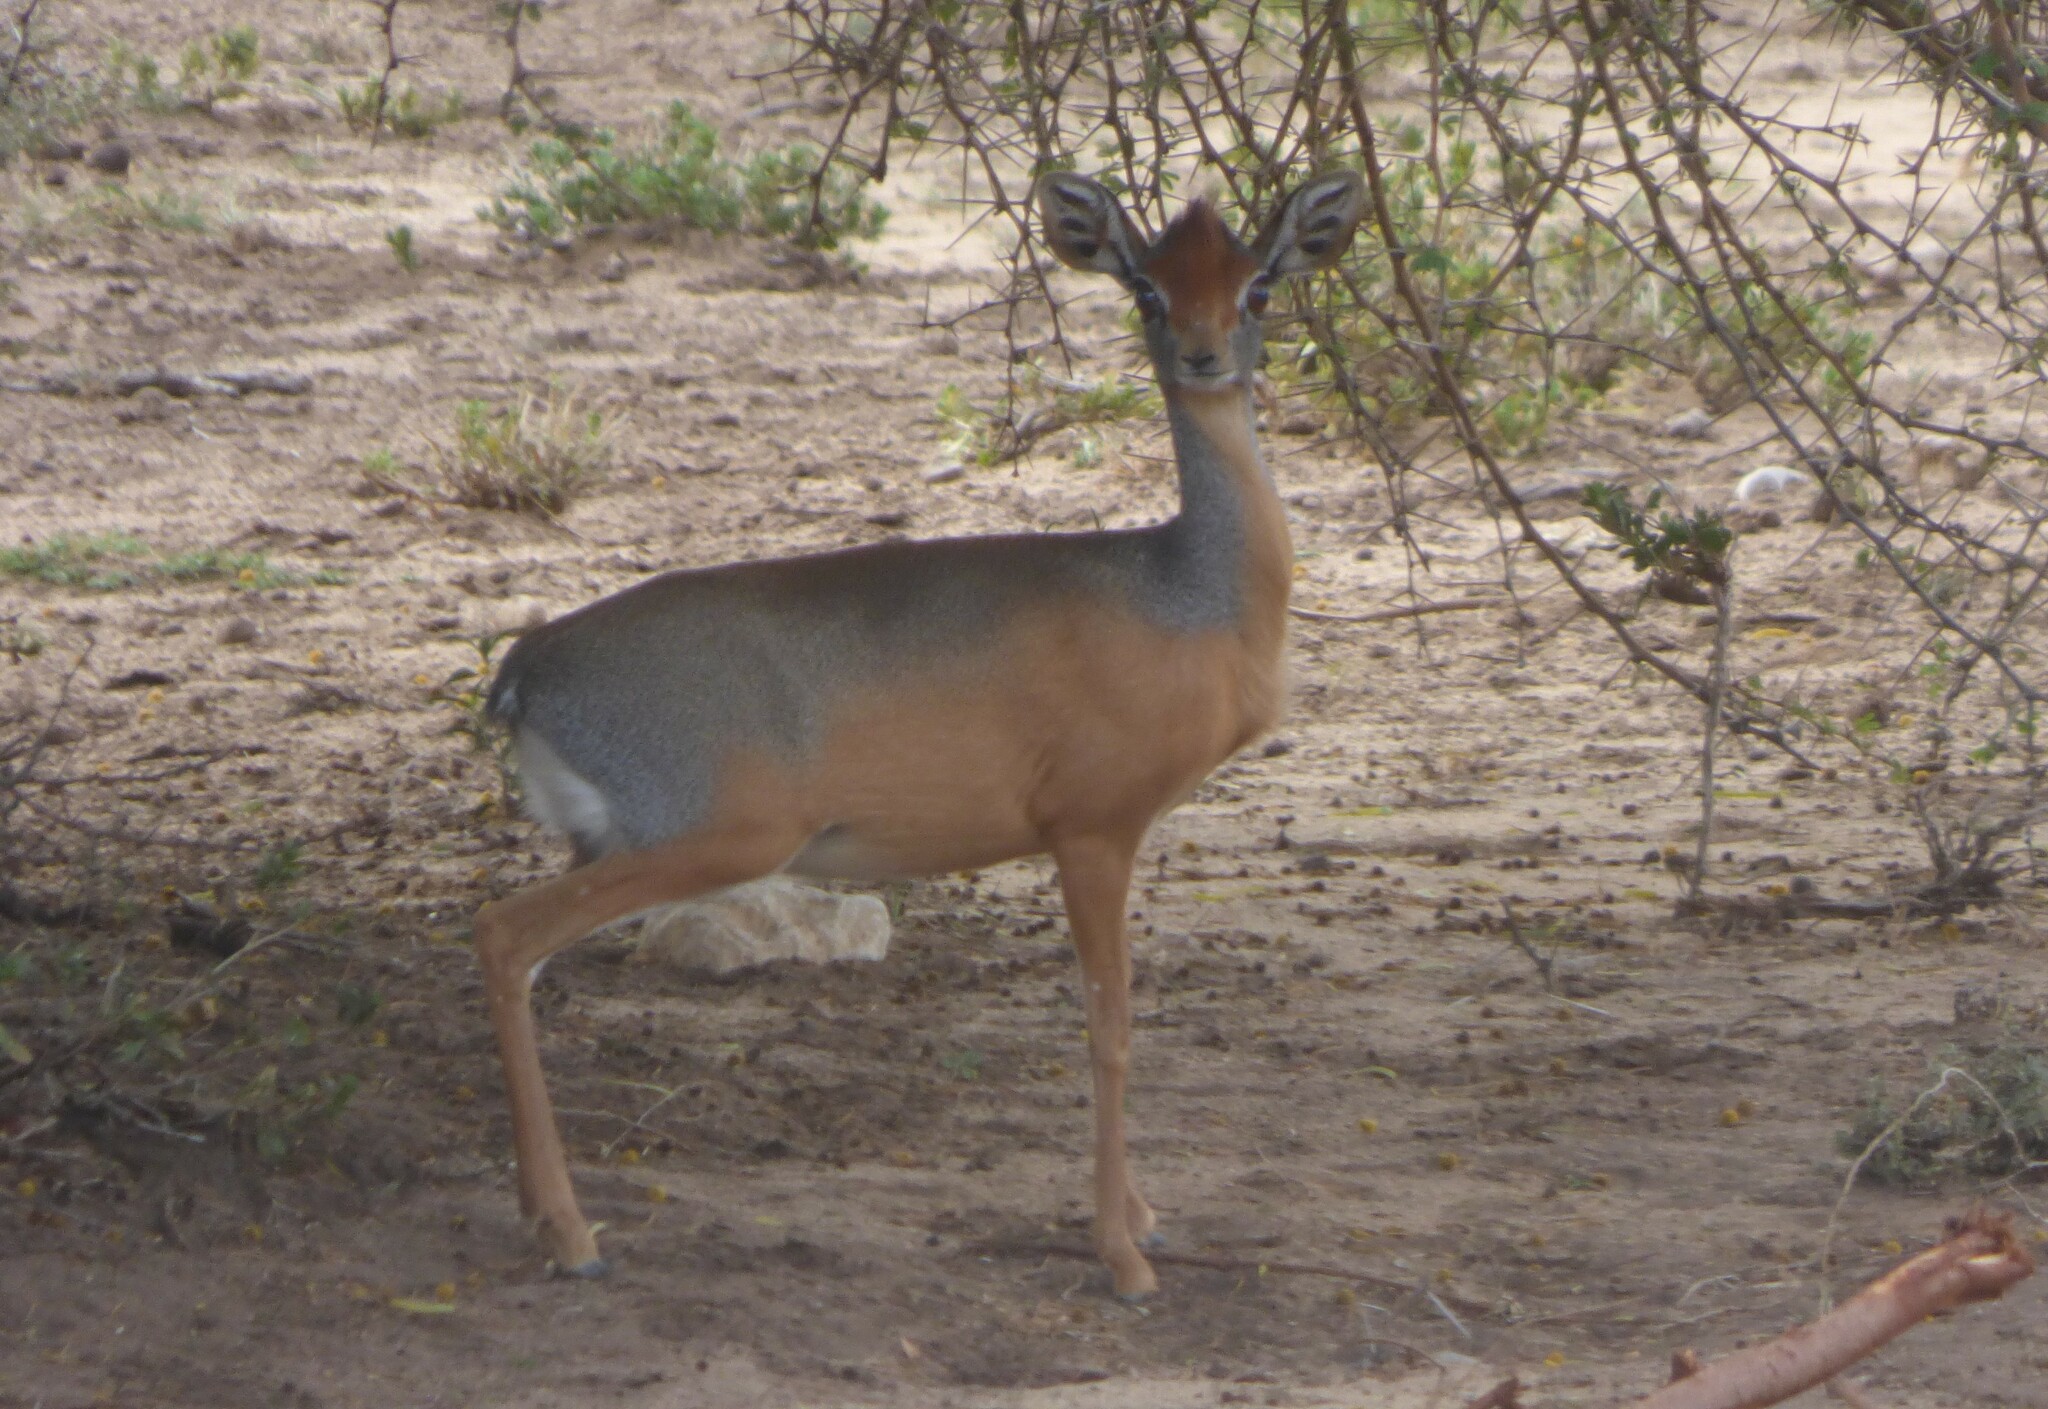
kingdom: Animalia
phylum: Chordata
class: Mammalia
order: Artiodactyla
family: Bovidae
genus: Madoqua
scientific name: Madoqua saltiana
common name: Salt's dikdik
